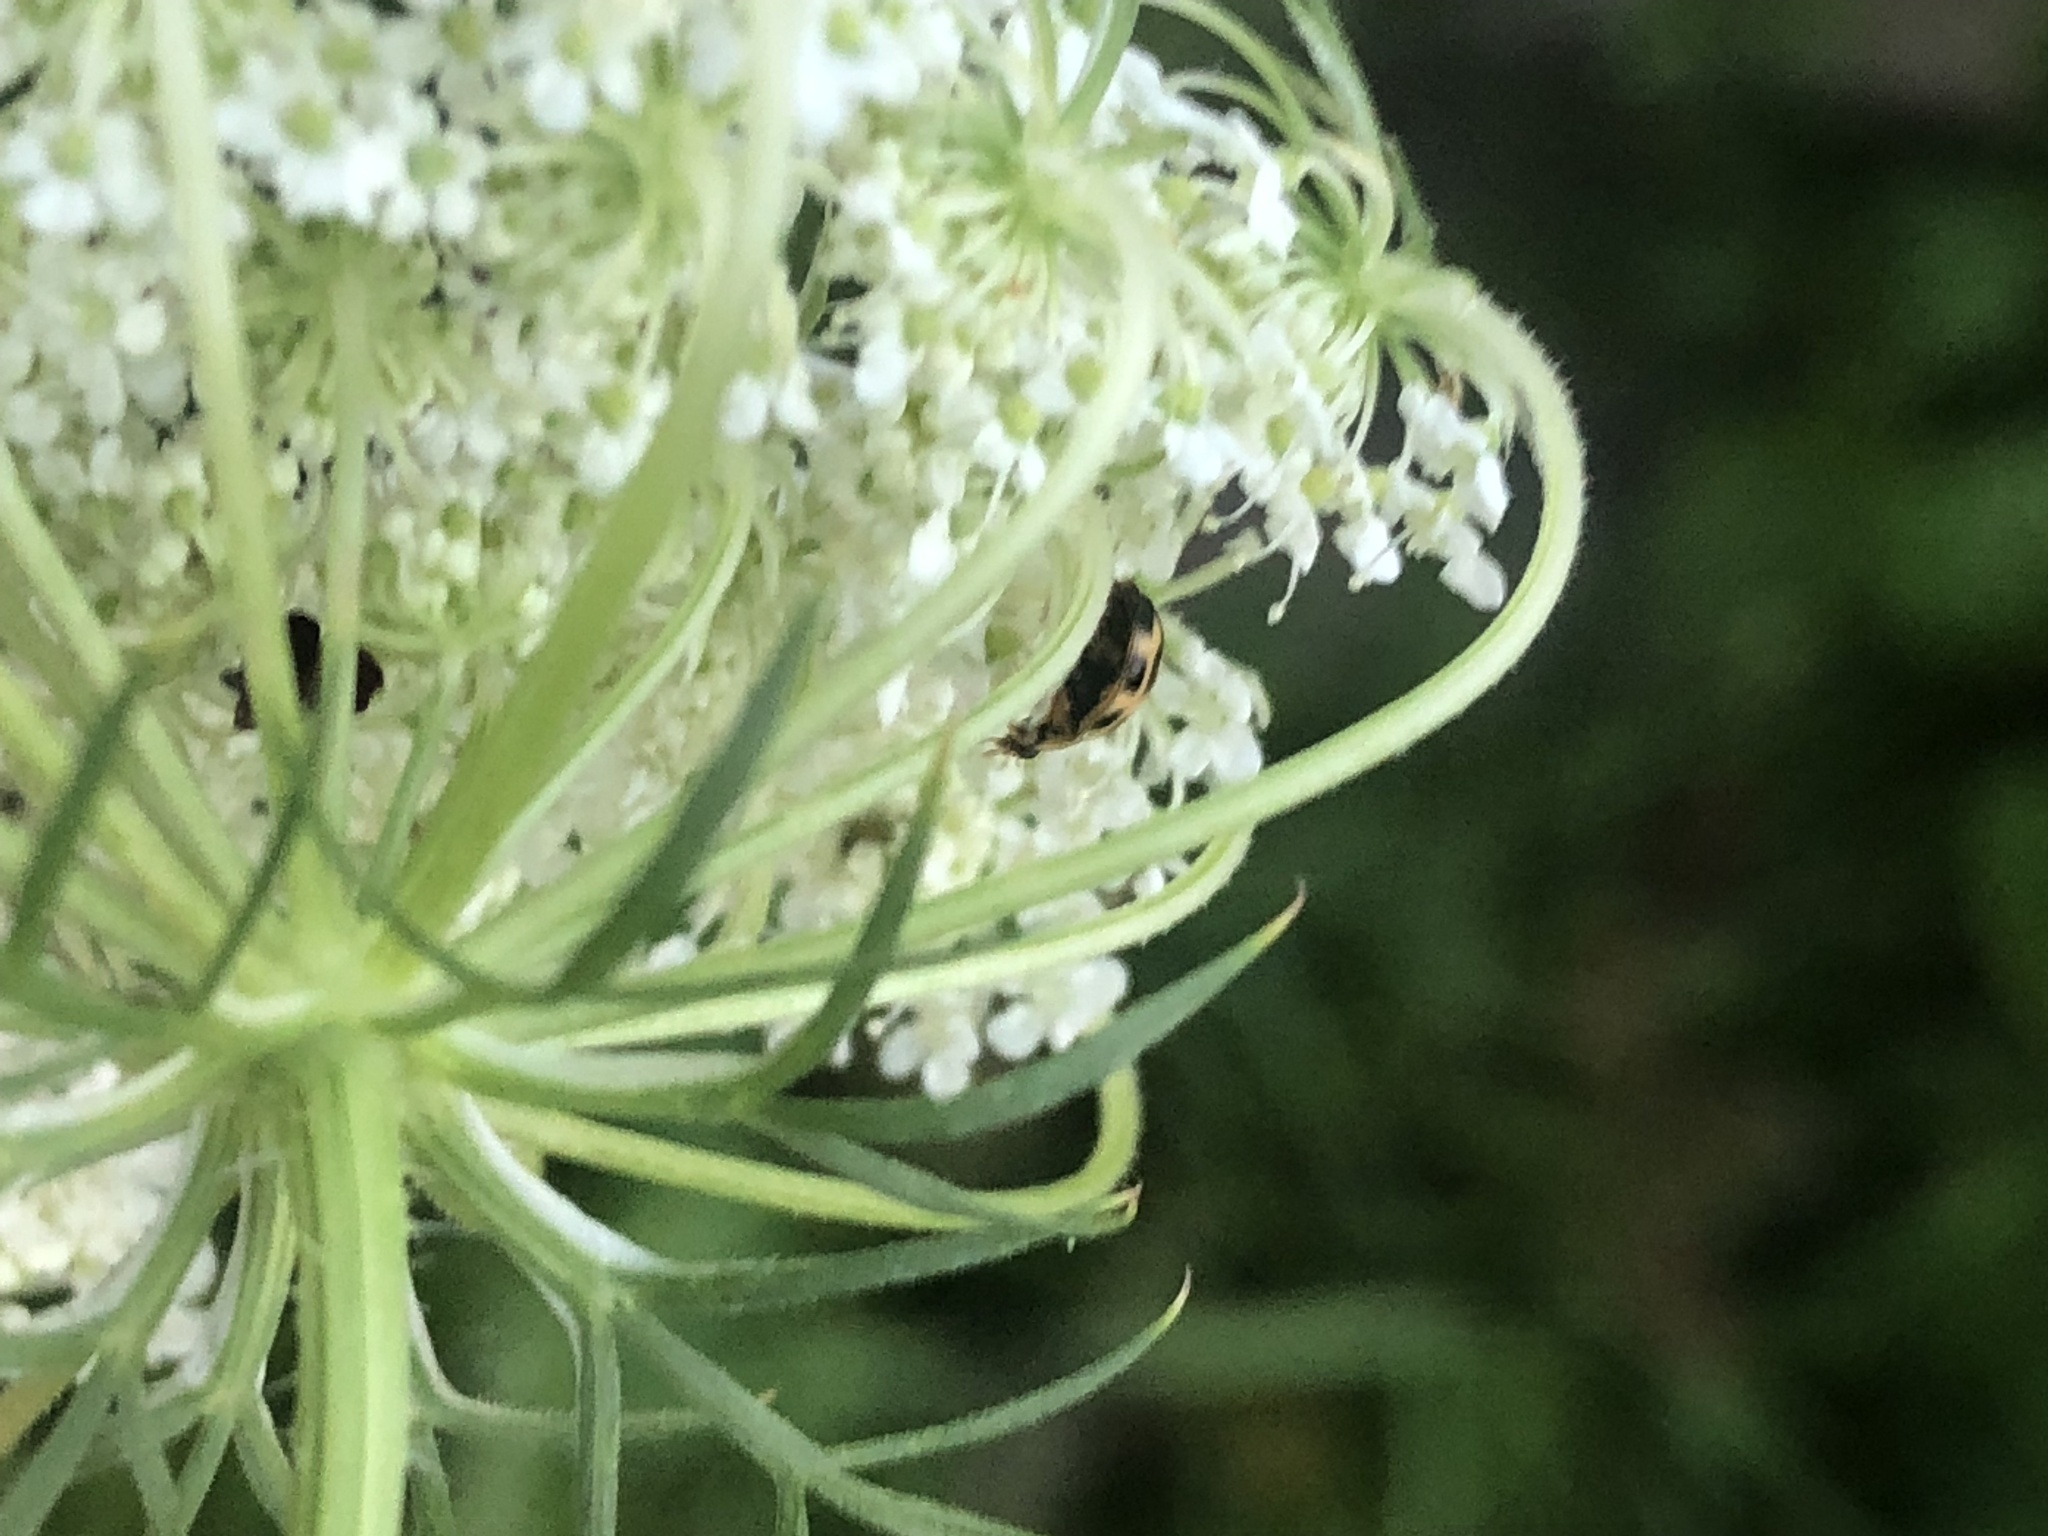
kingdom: Animalia
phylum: Arthropoda
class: Insecta
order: Coleoptera
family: Coccinellidae
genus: Propylaea
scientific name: Propylaea quatuordecimpunctata
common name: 14-spotted ladybird beetle
